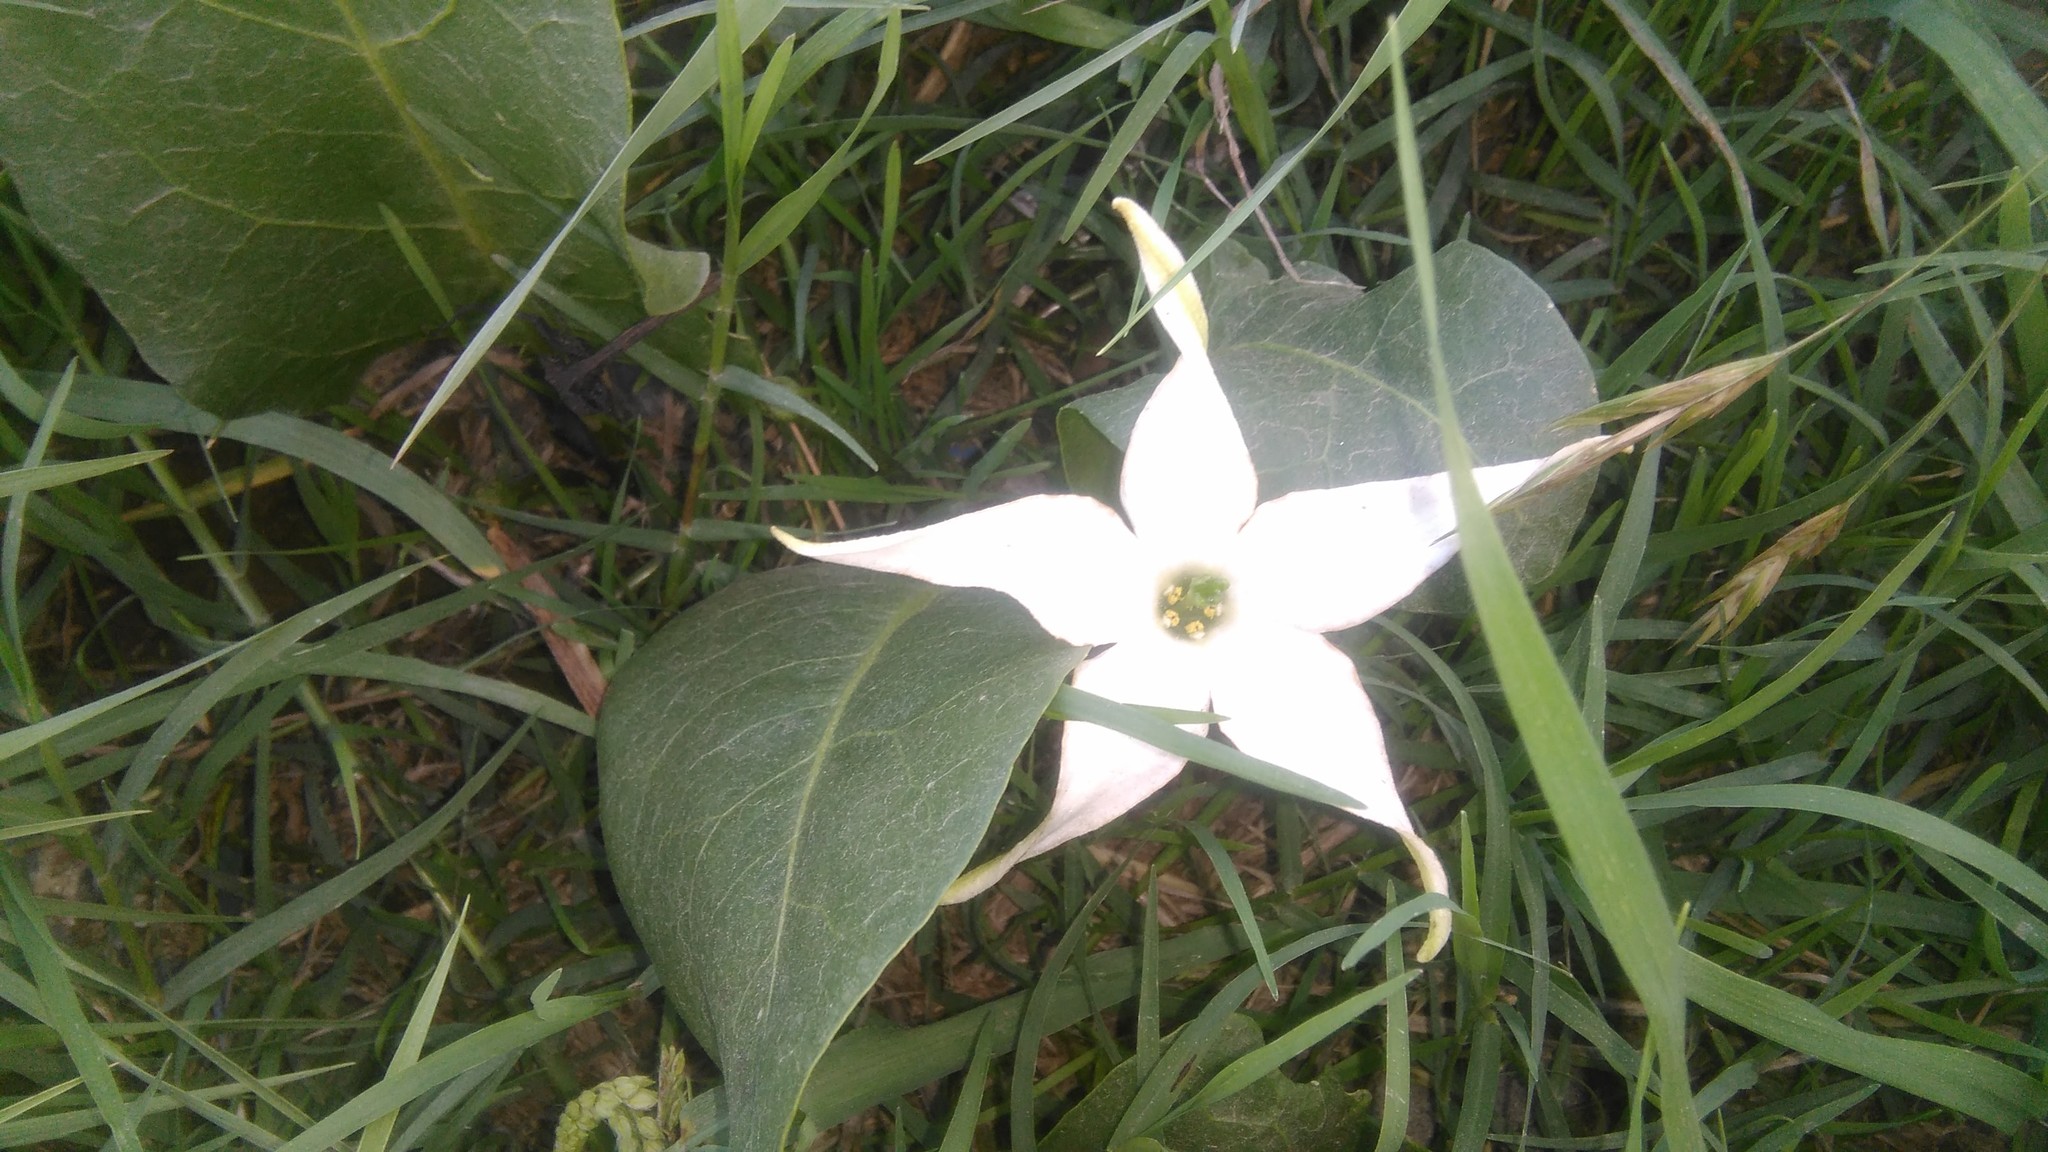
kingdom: Plantae
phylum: Tracheophyta
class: Magnoliopsida
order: Solanales
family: Solanaceae
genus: Jaborosa
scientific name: Jaborosa integrifolia
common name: Springblossom
